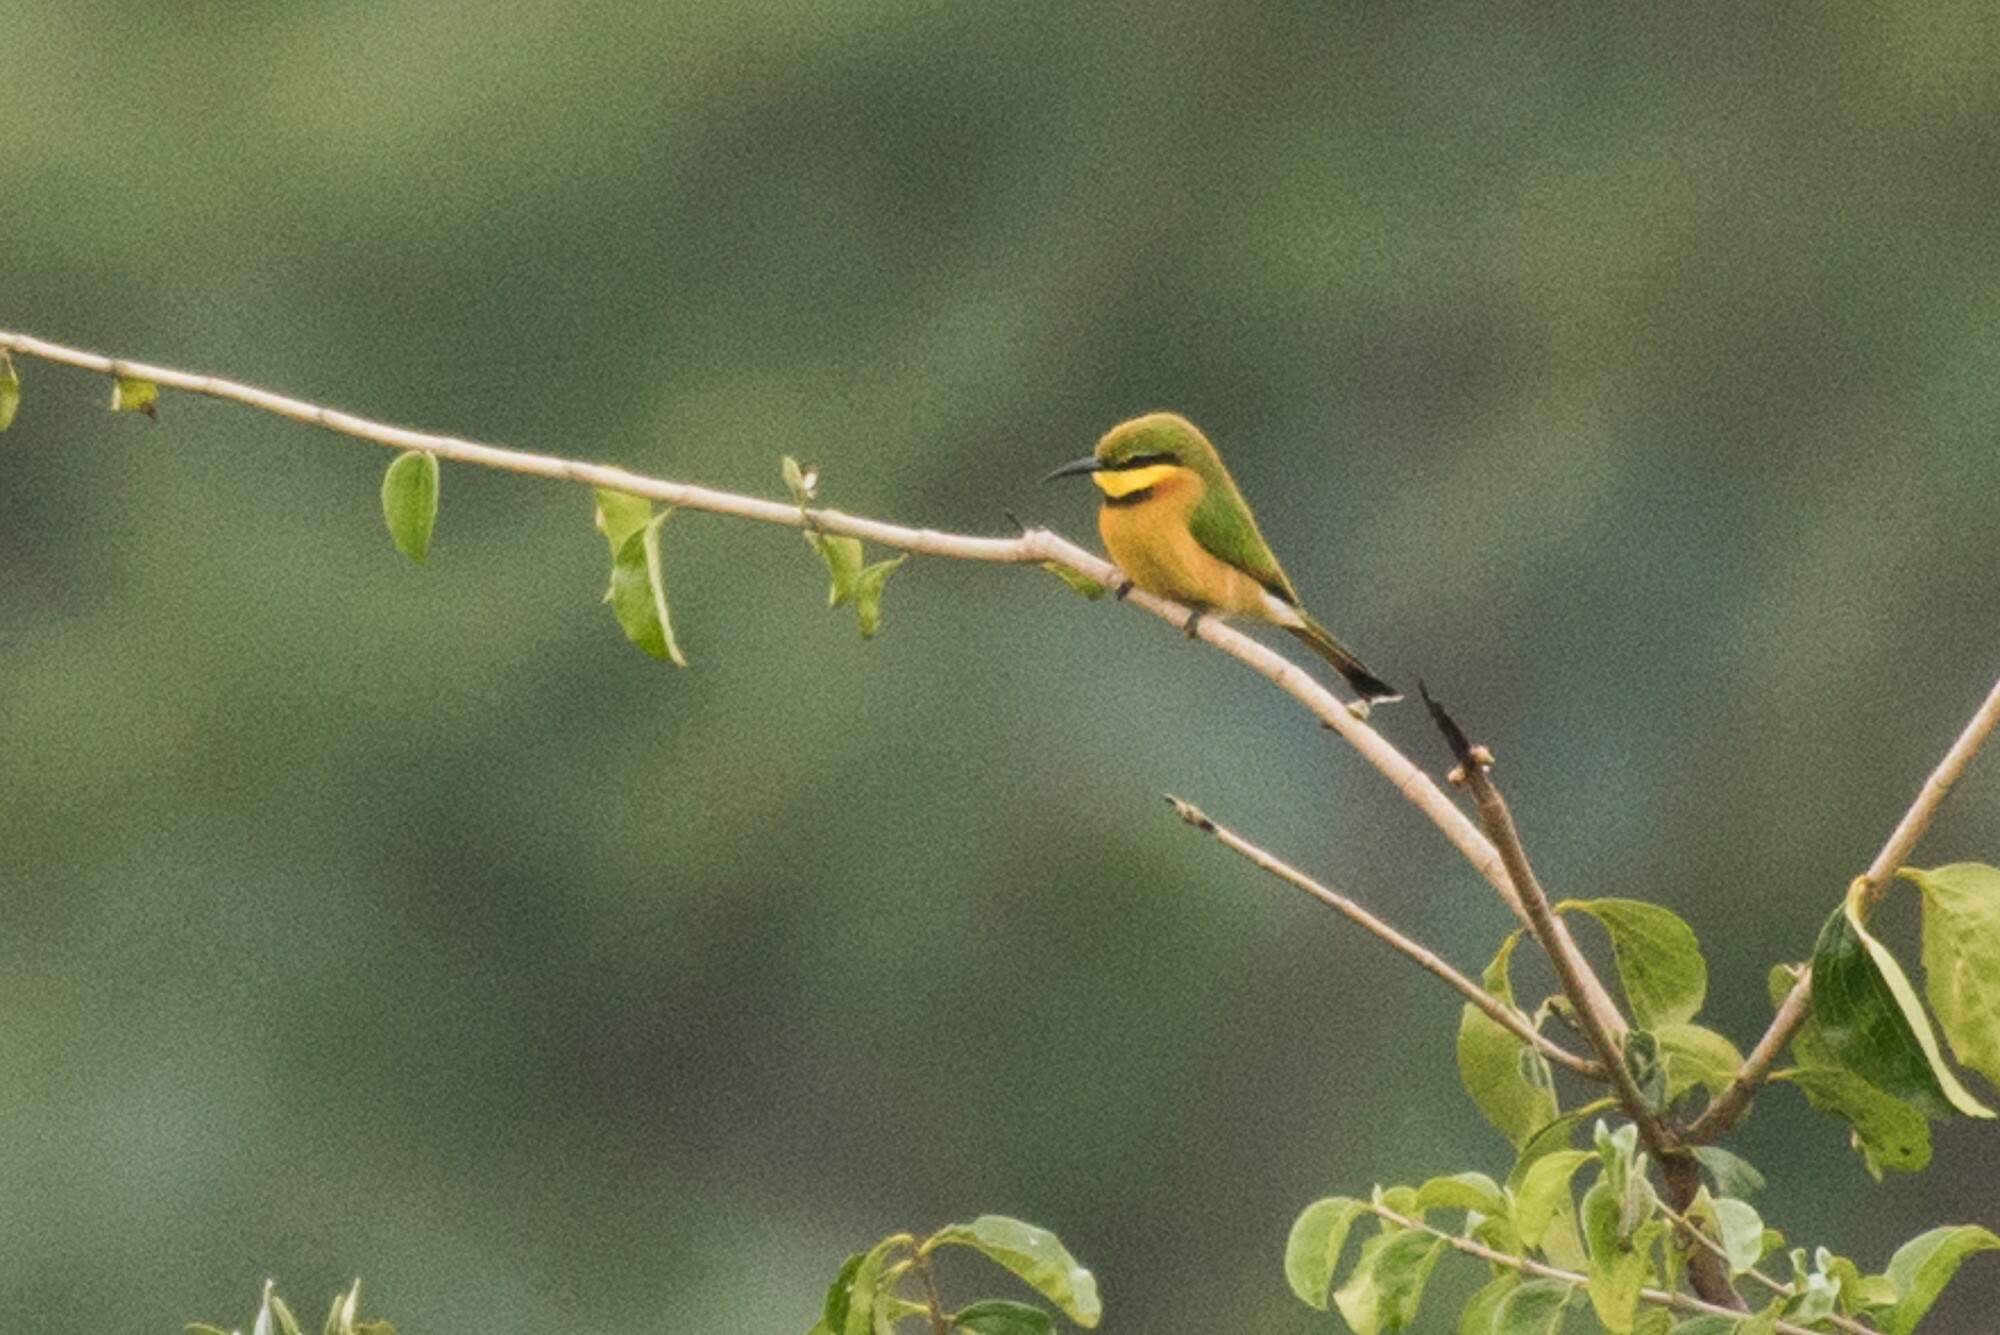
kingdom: Animalia
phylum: Chordata
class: Aves
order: Coraciiformes
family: Meropidae
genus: Merops
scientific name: Merops pusillus
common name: Little bee-eater
